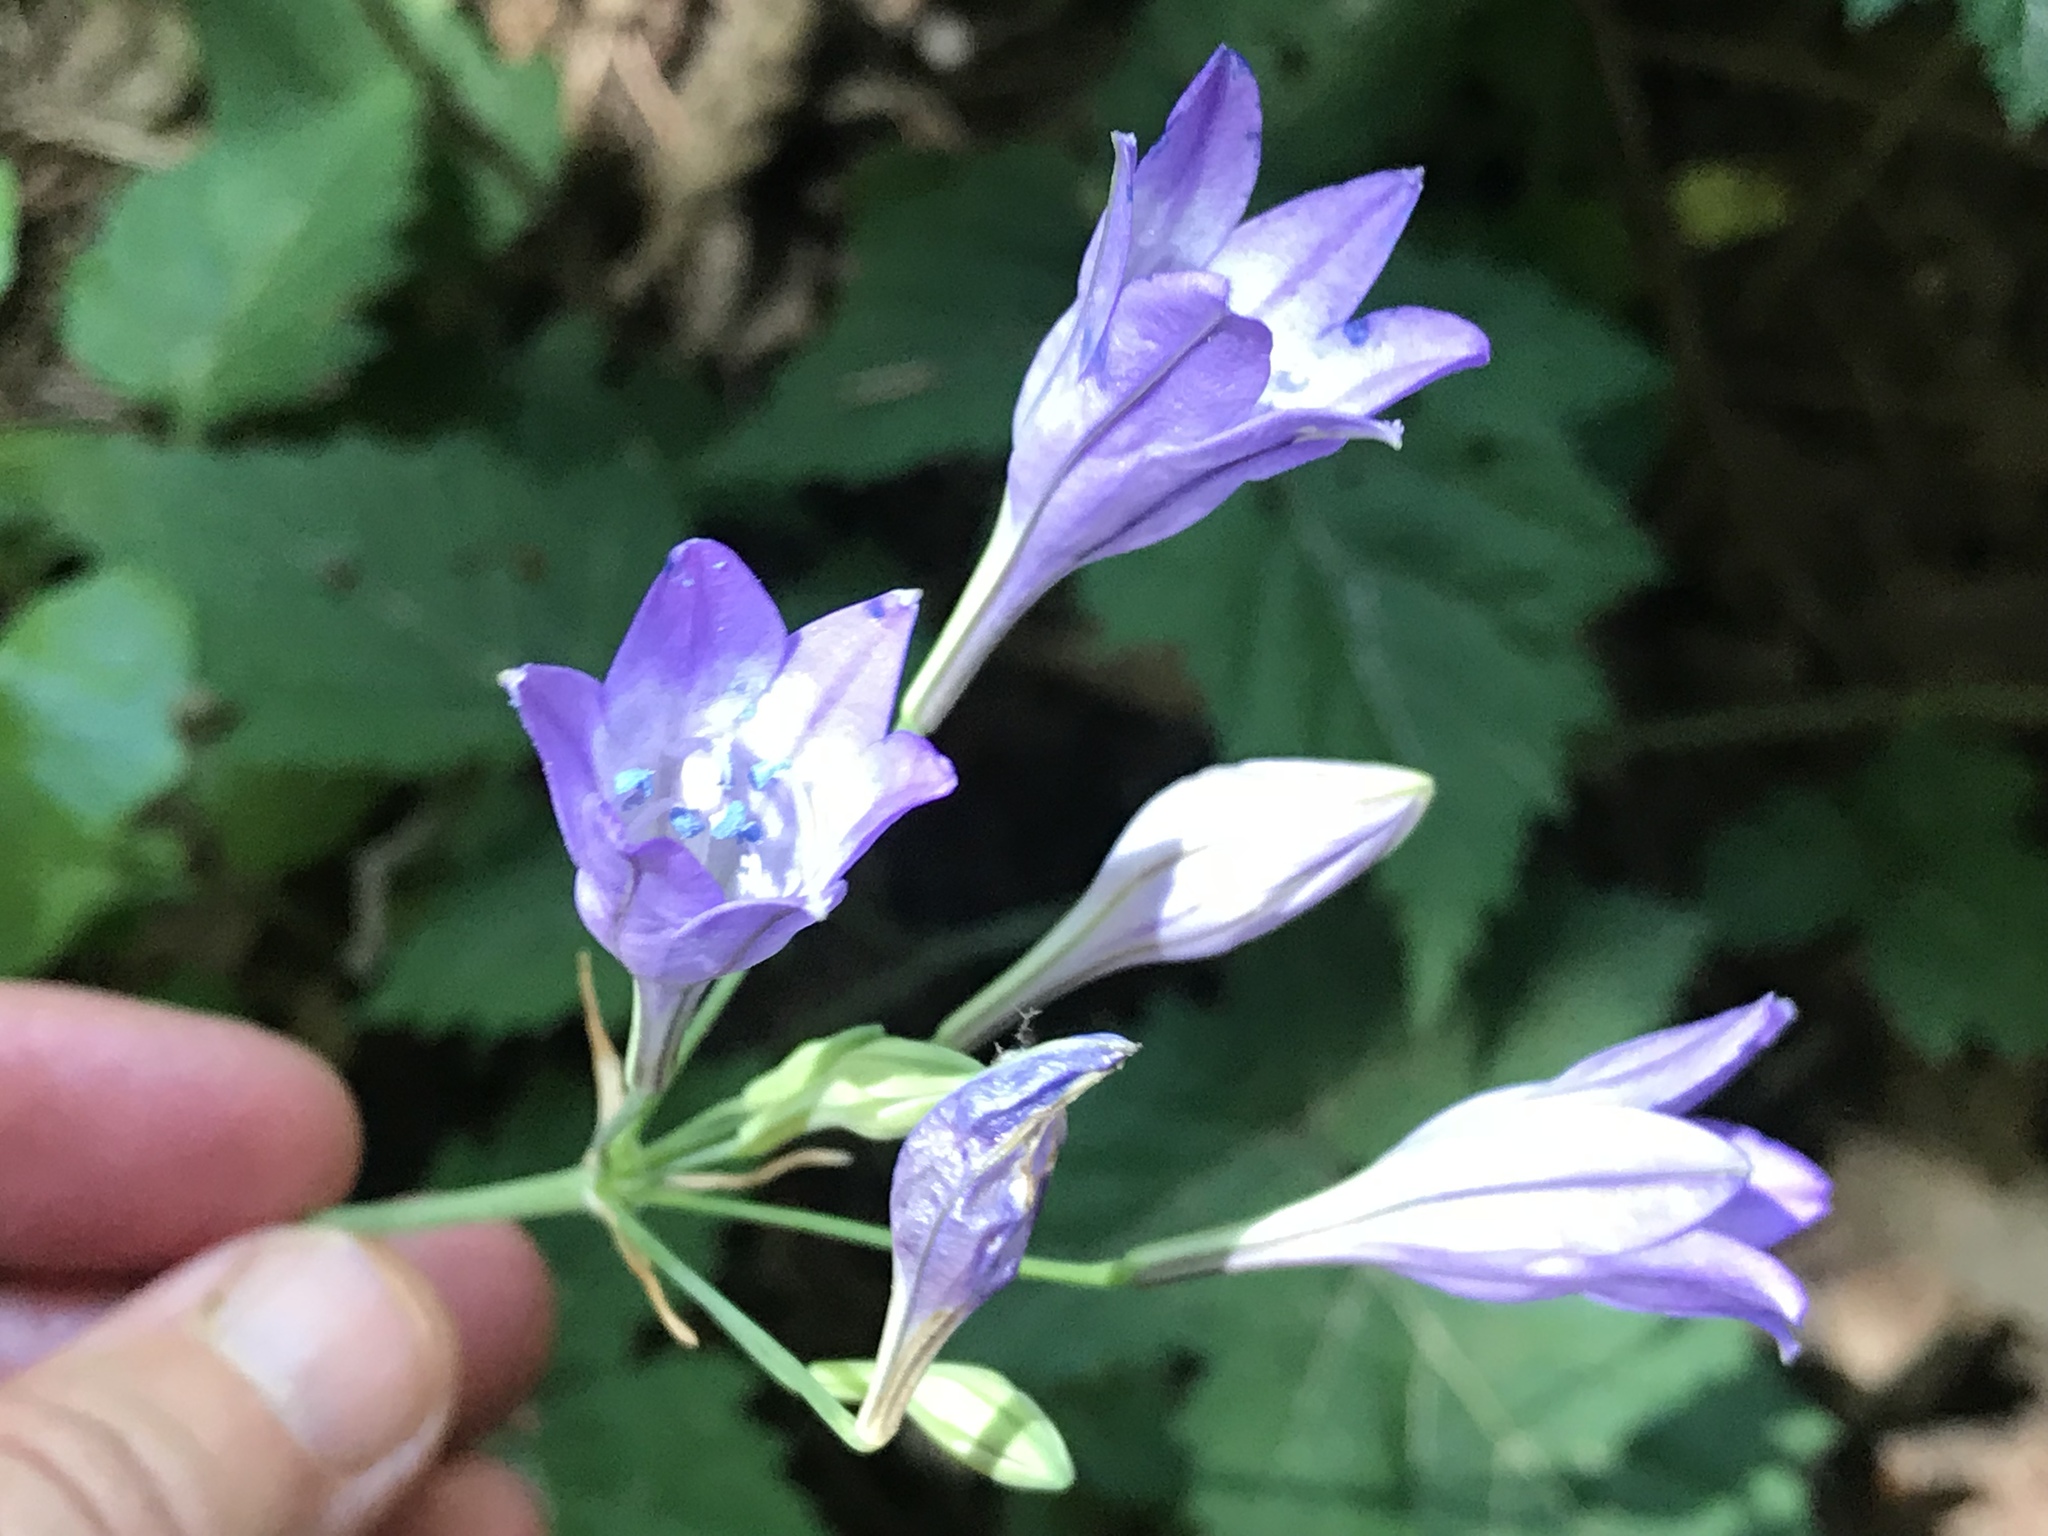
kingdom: Plantae
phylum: Tracheophyta
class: Liliopsida
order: Asparagales
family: Asparagaceae
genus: Triteleia
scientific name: Triteleia laxa
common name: Triplet-lily
